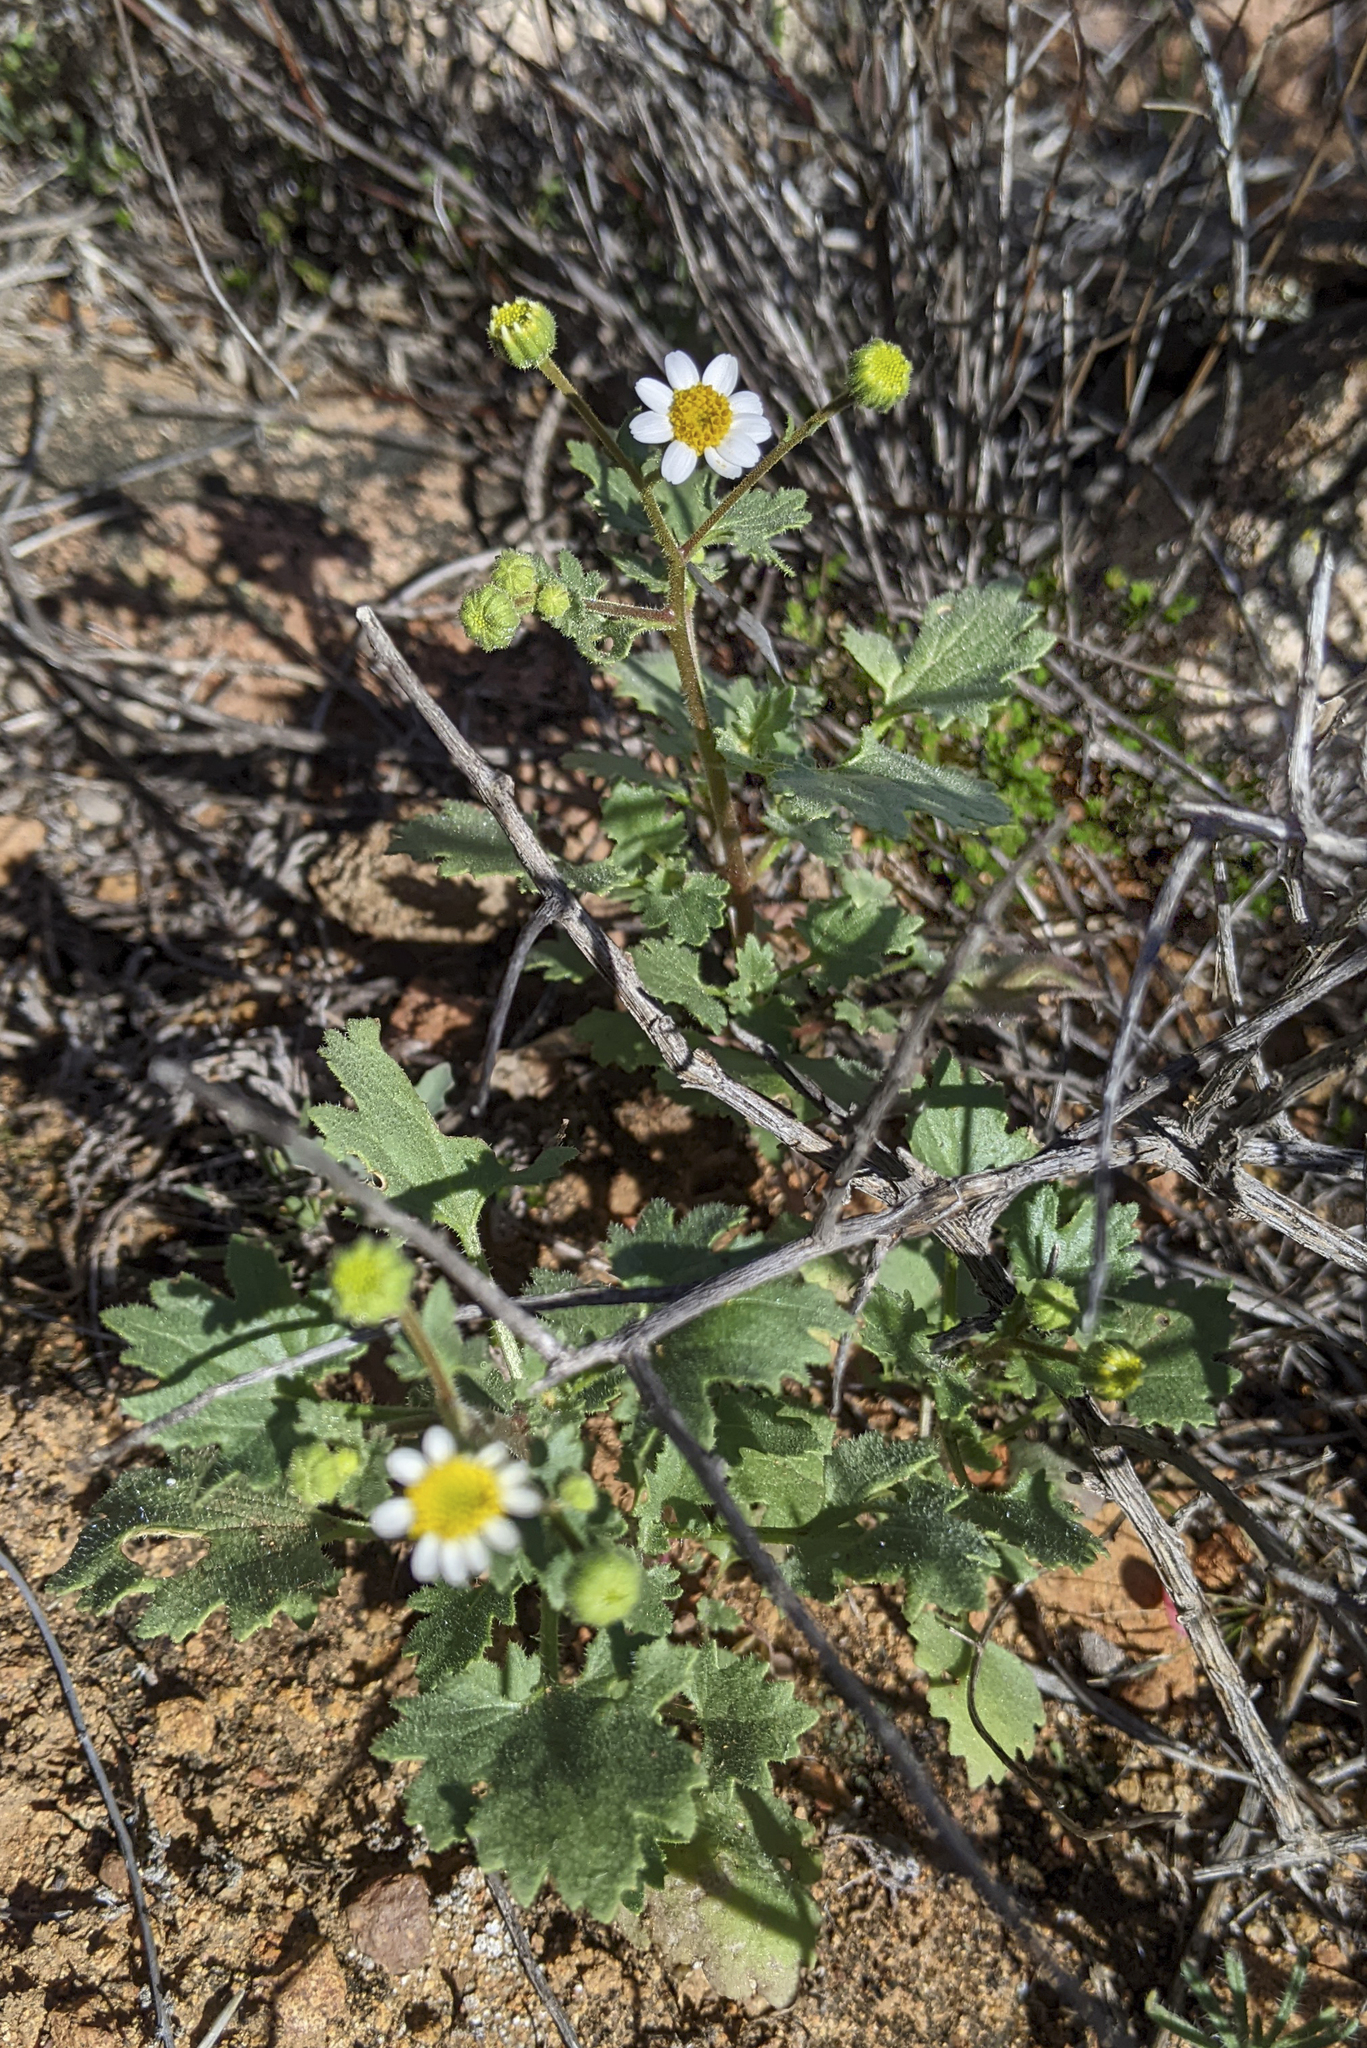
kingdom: Plantae
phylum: Tracheophyta
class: Magnoliopsida
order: Asterales
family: Asteraceae
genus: Laphamia
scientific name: Laphamia emoryi
